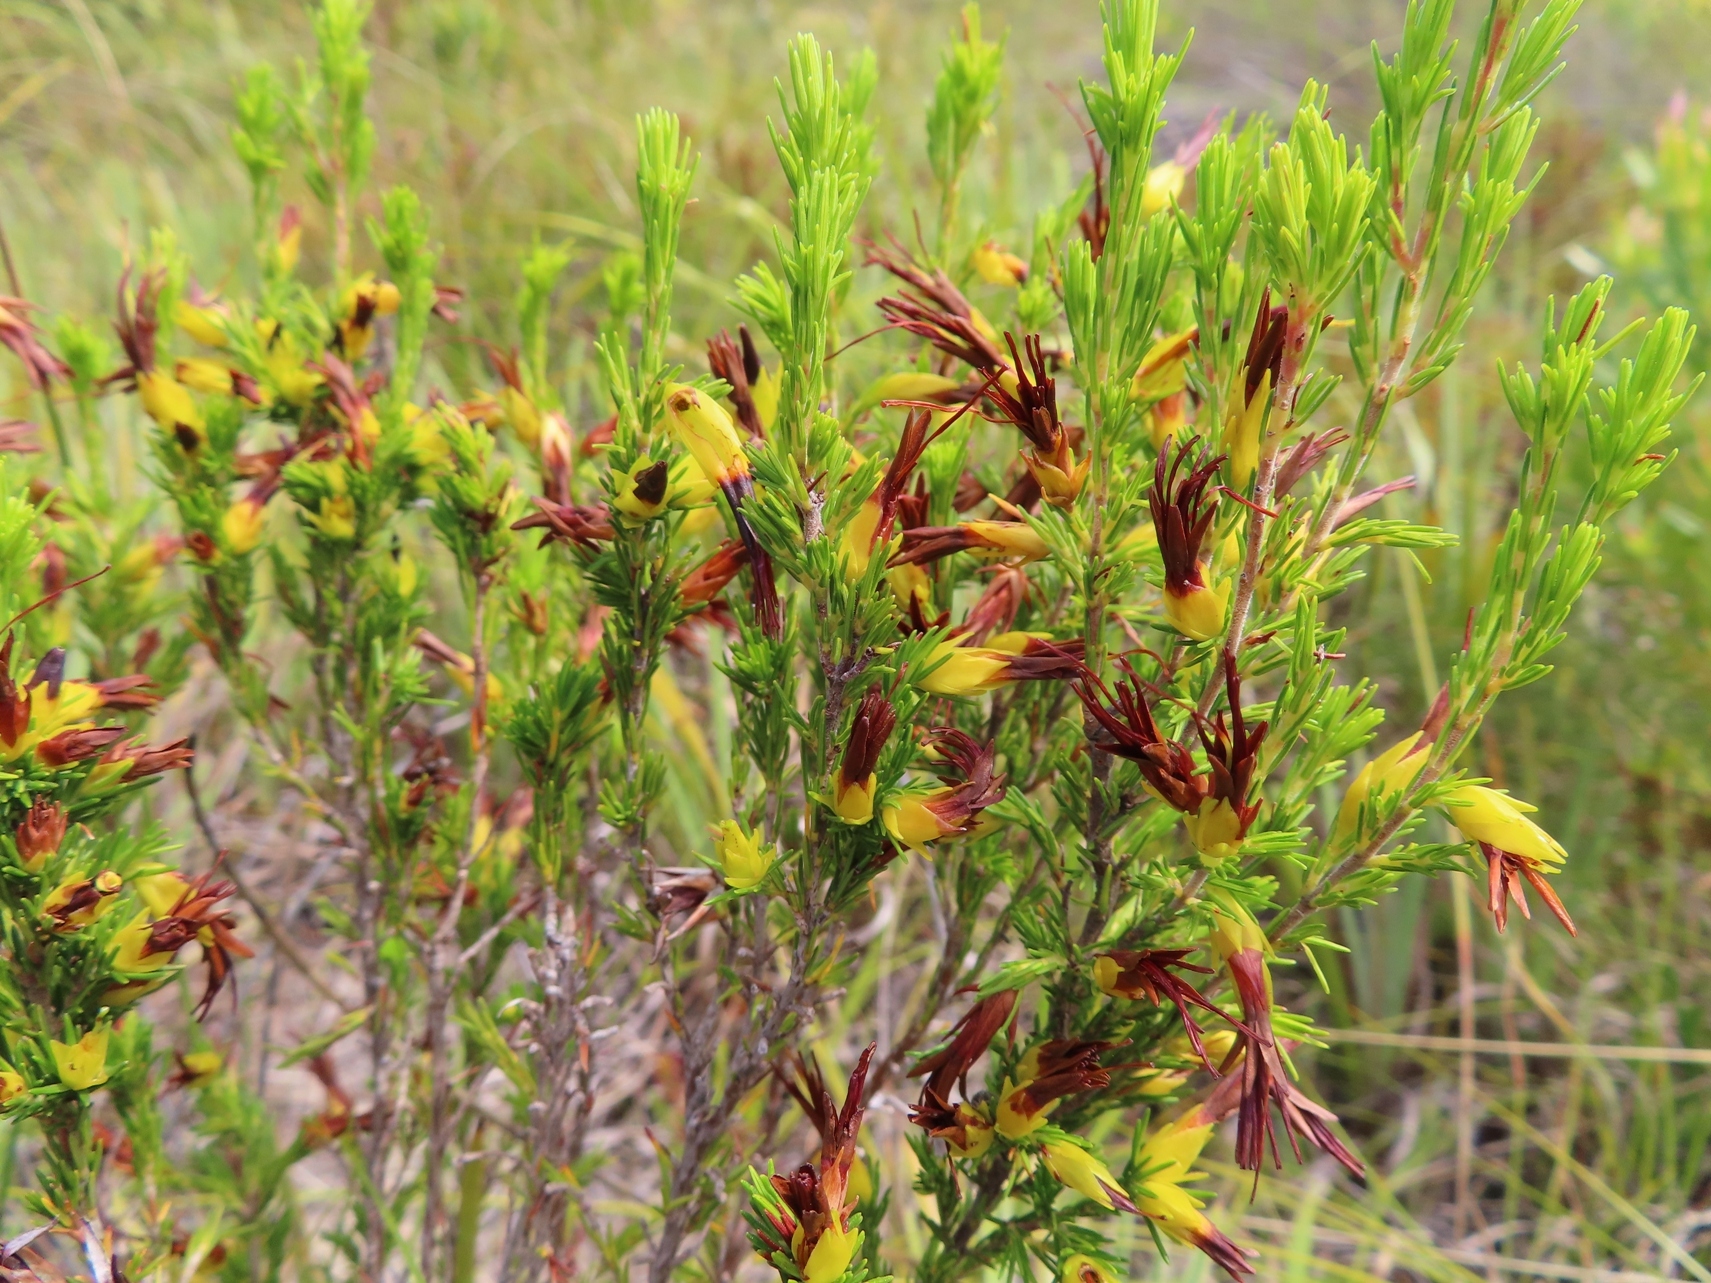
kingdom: Plantae
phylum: Tracheophyta
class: Magnoliopsida
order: Ericales
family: Ericaceae
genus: Erica
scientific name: Erica melastoma
